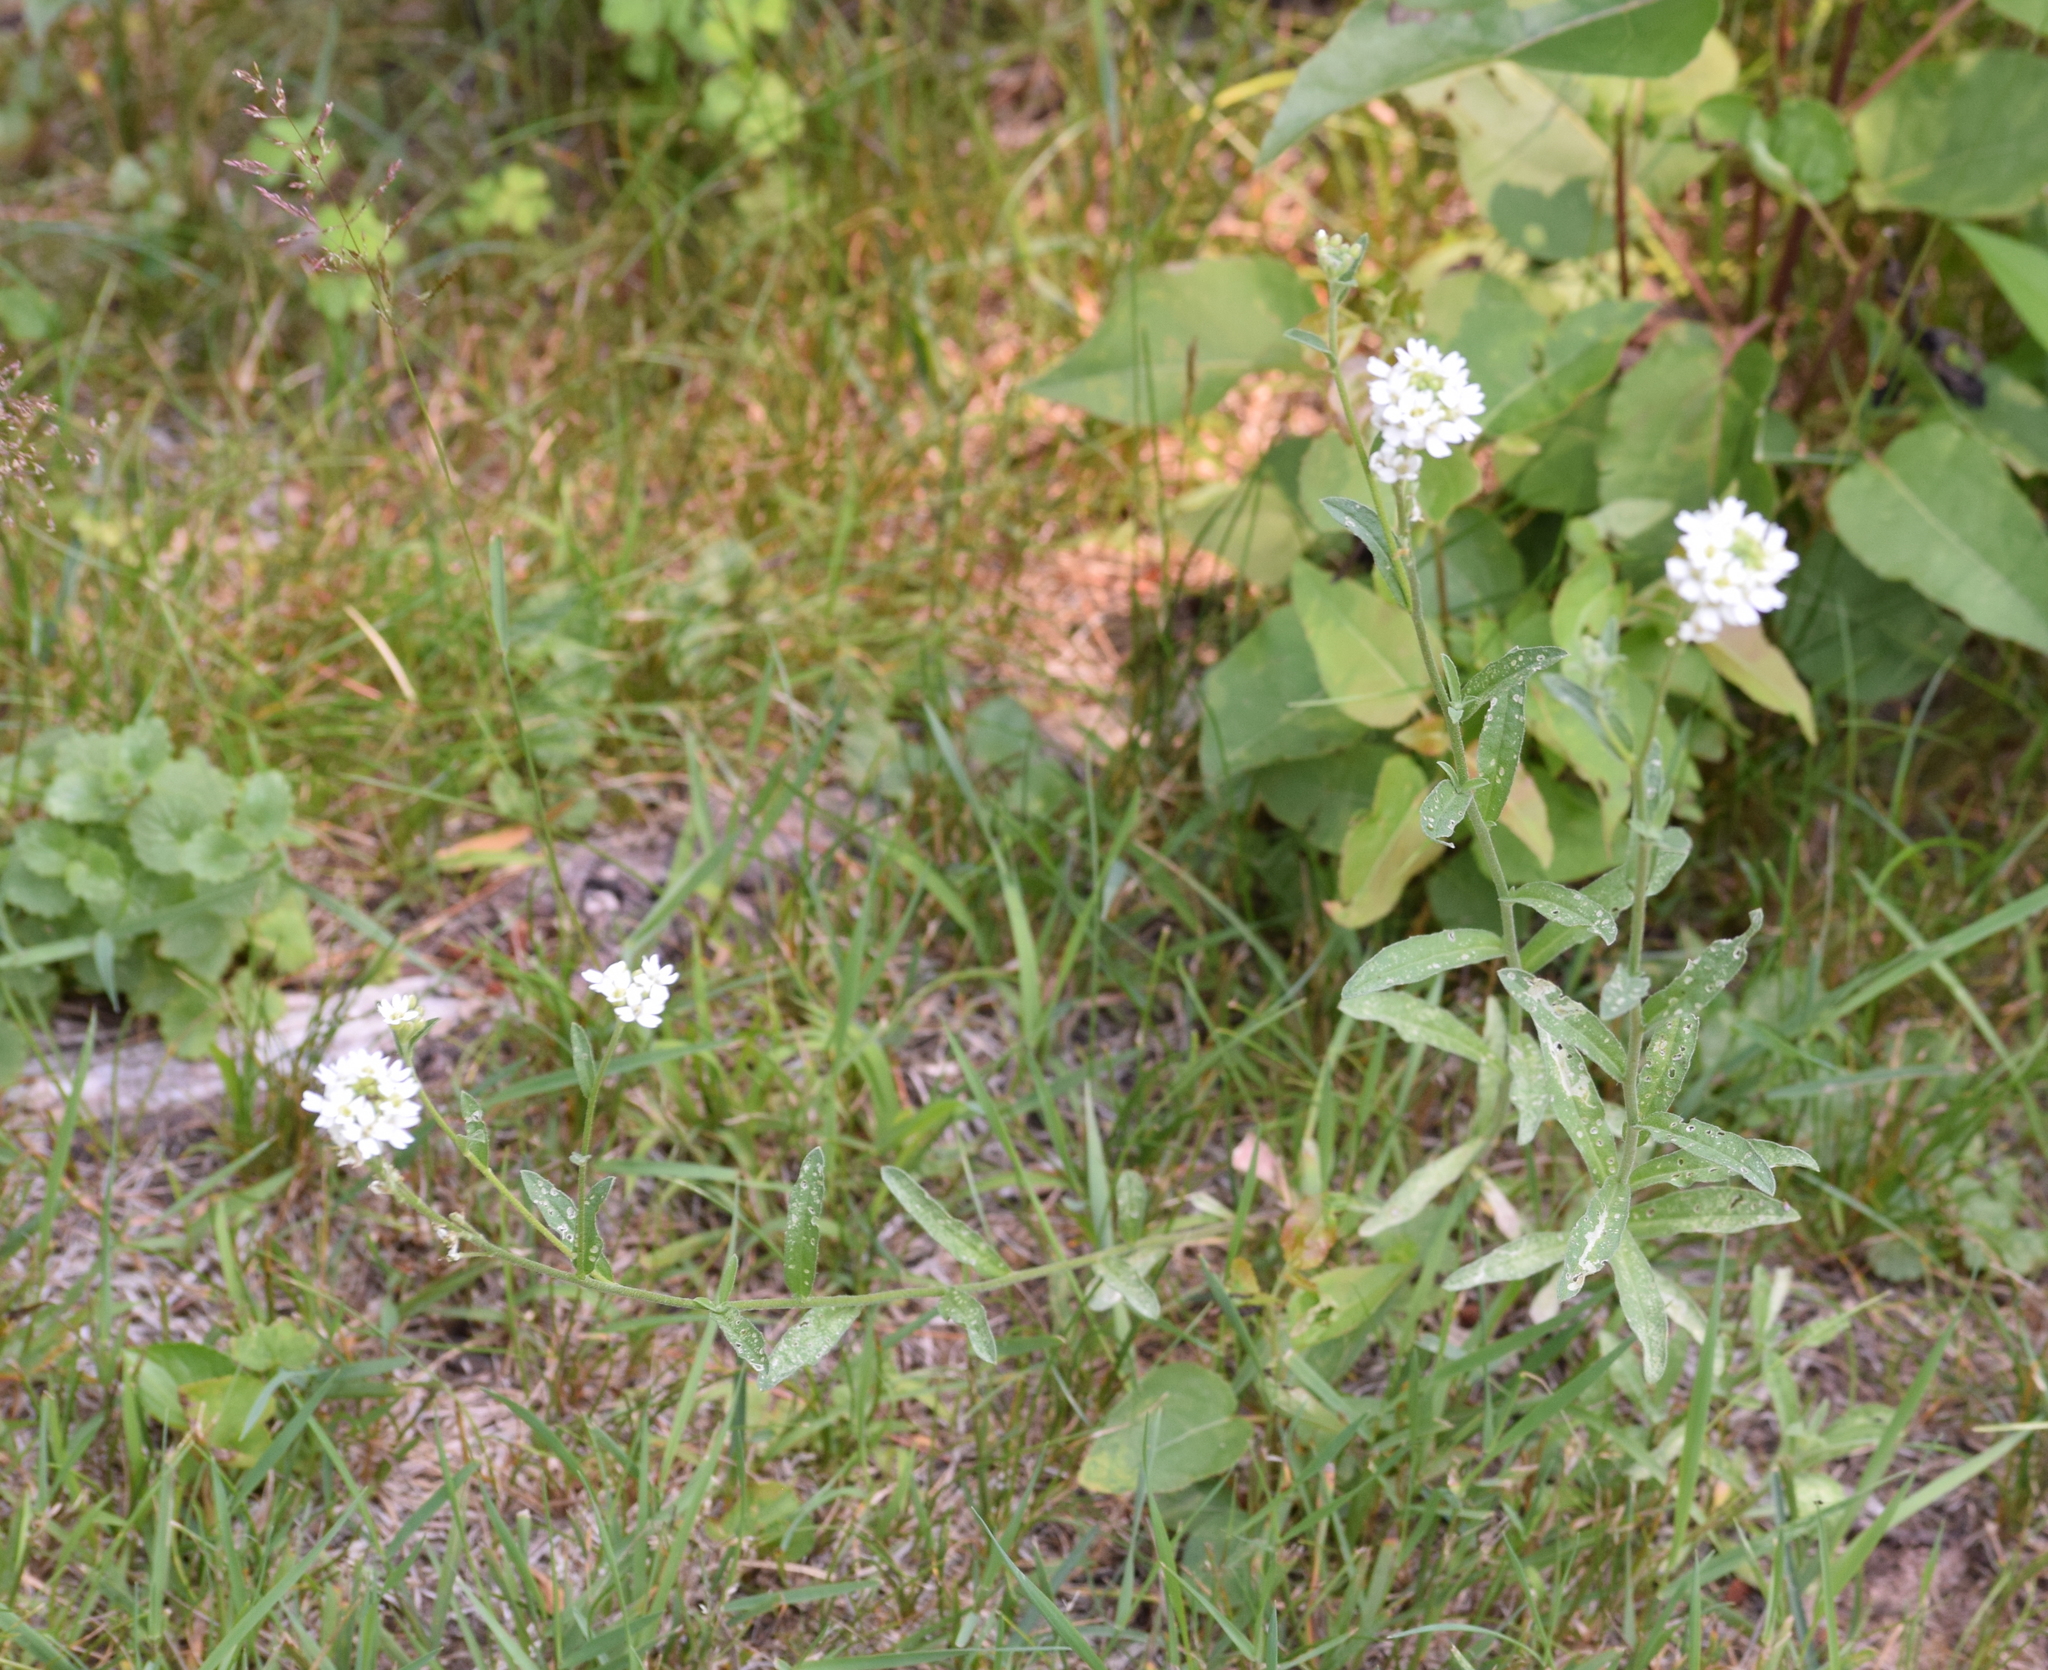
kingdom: Plantae
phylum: Tracheophyta
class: Magnoliopsida
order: Brassicales
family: Brassicaceae
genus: Berteroa
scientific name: Berteroa incana
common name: Hoary alison
